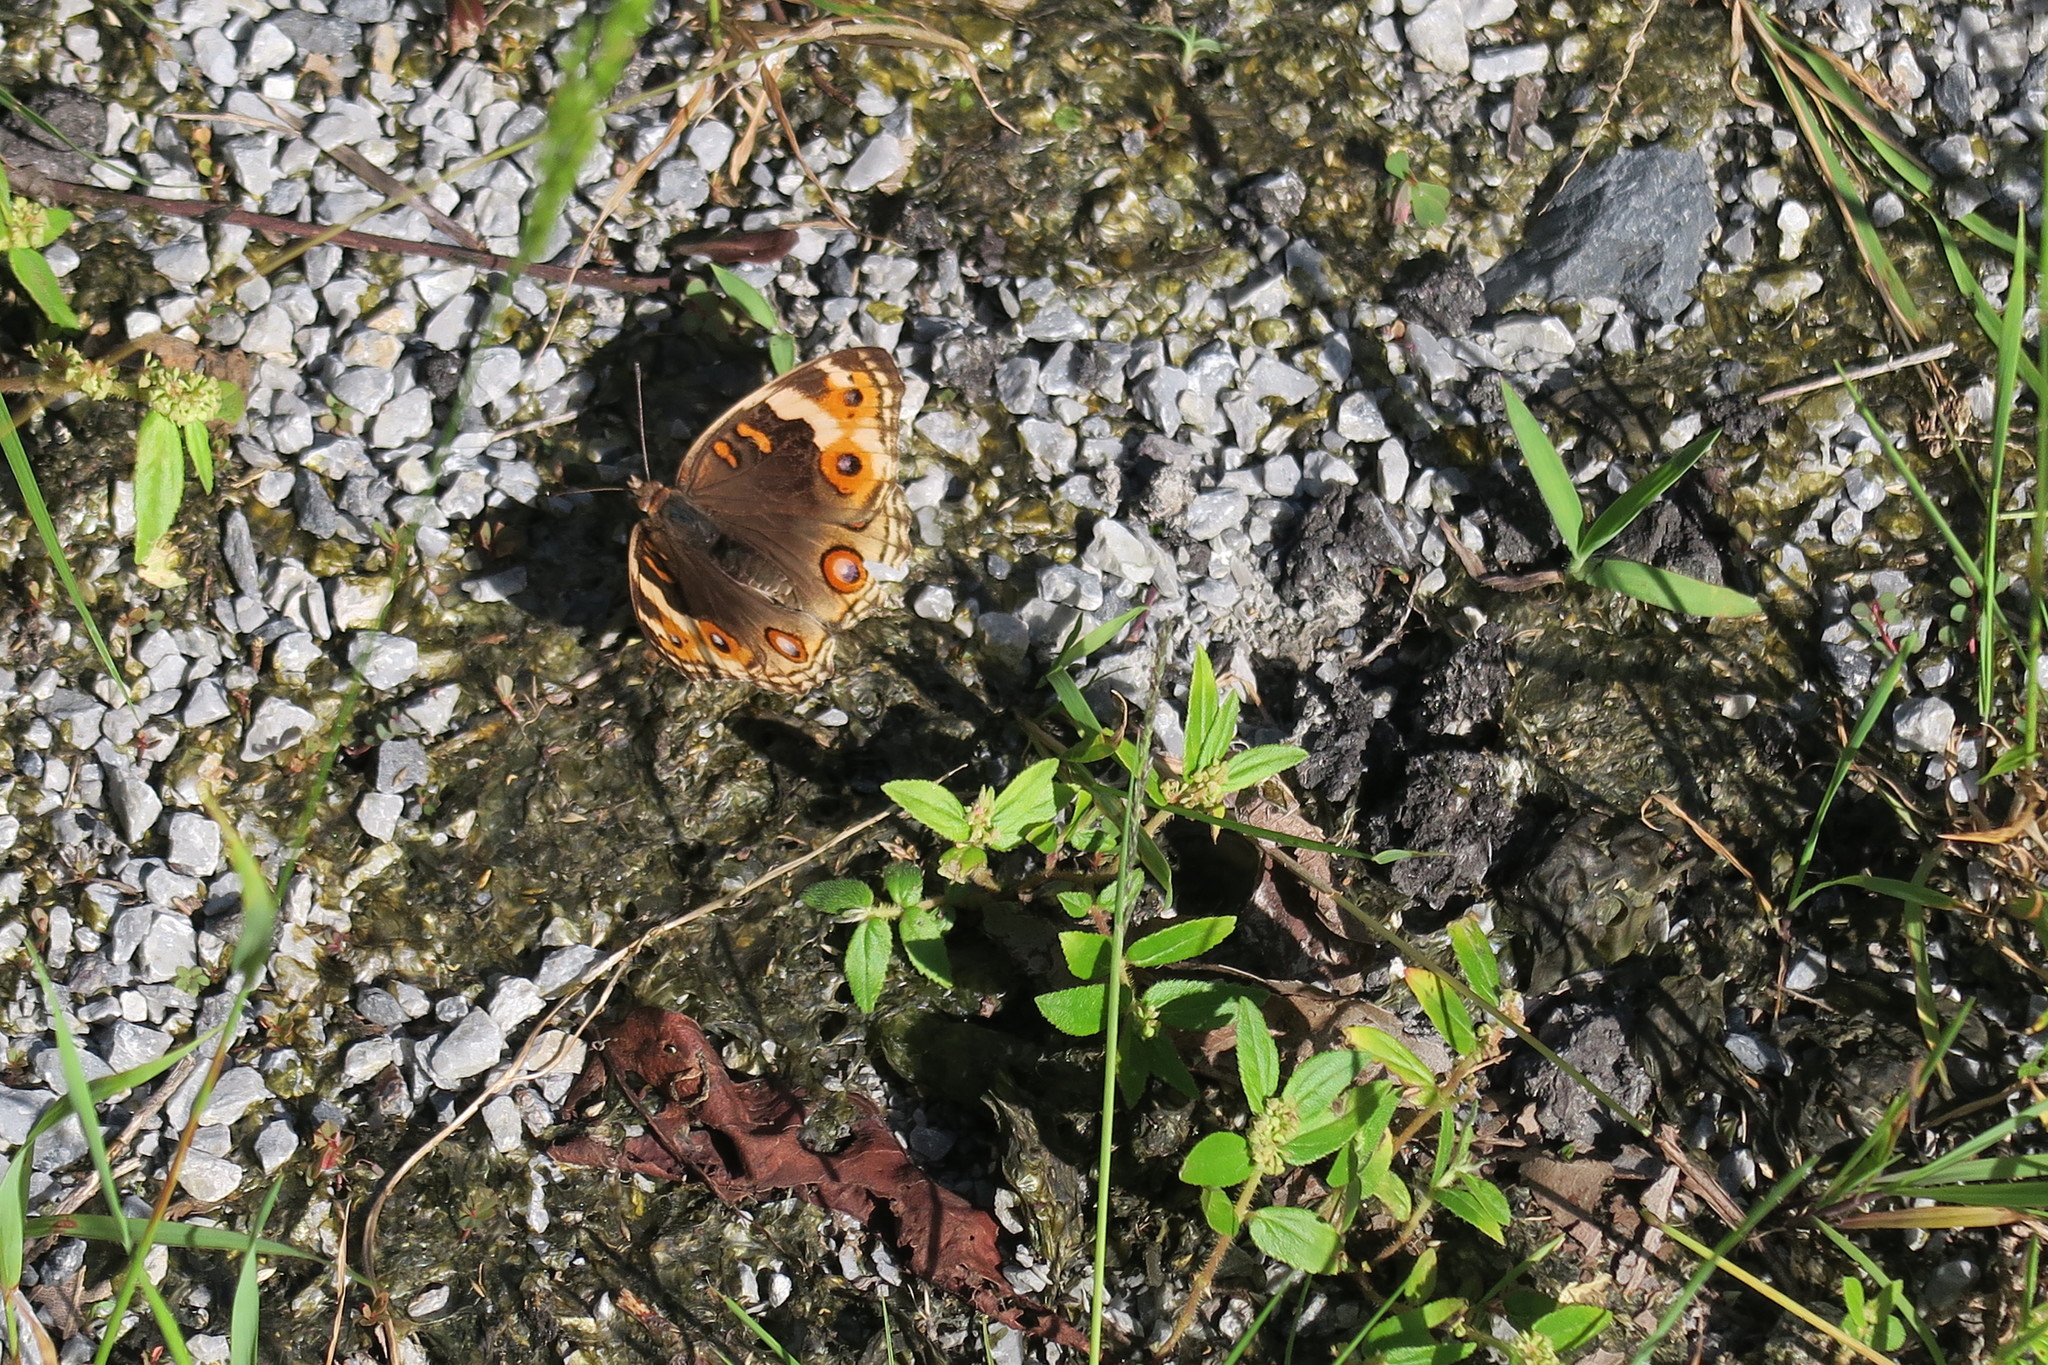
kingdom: Animalia
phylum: Arthropoda
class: Insecta
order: Lepidoptera
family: Nymphalidae
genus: Junonia
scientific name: Junonia orithya
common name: Blue pansy
